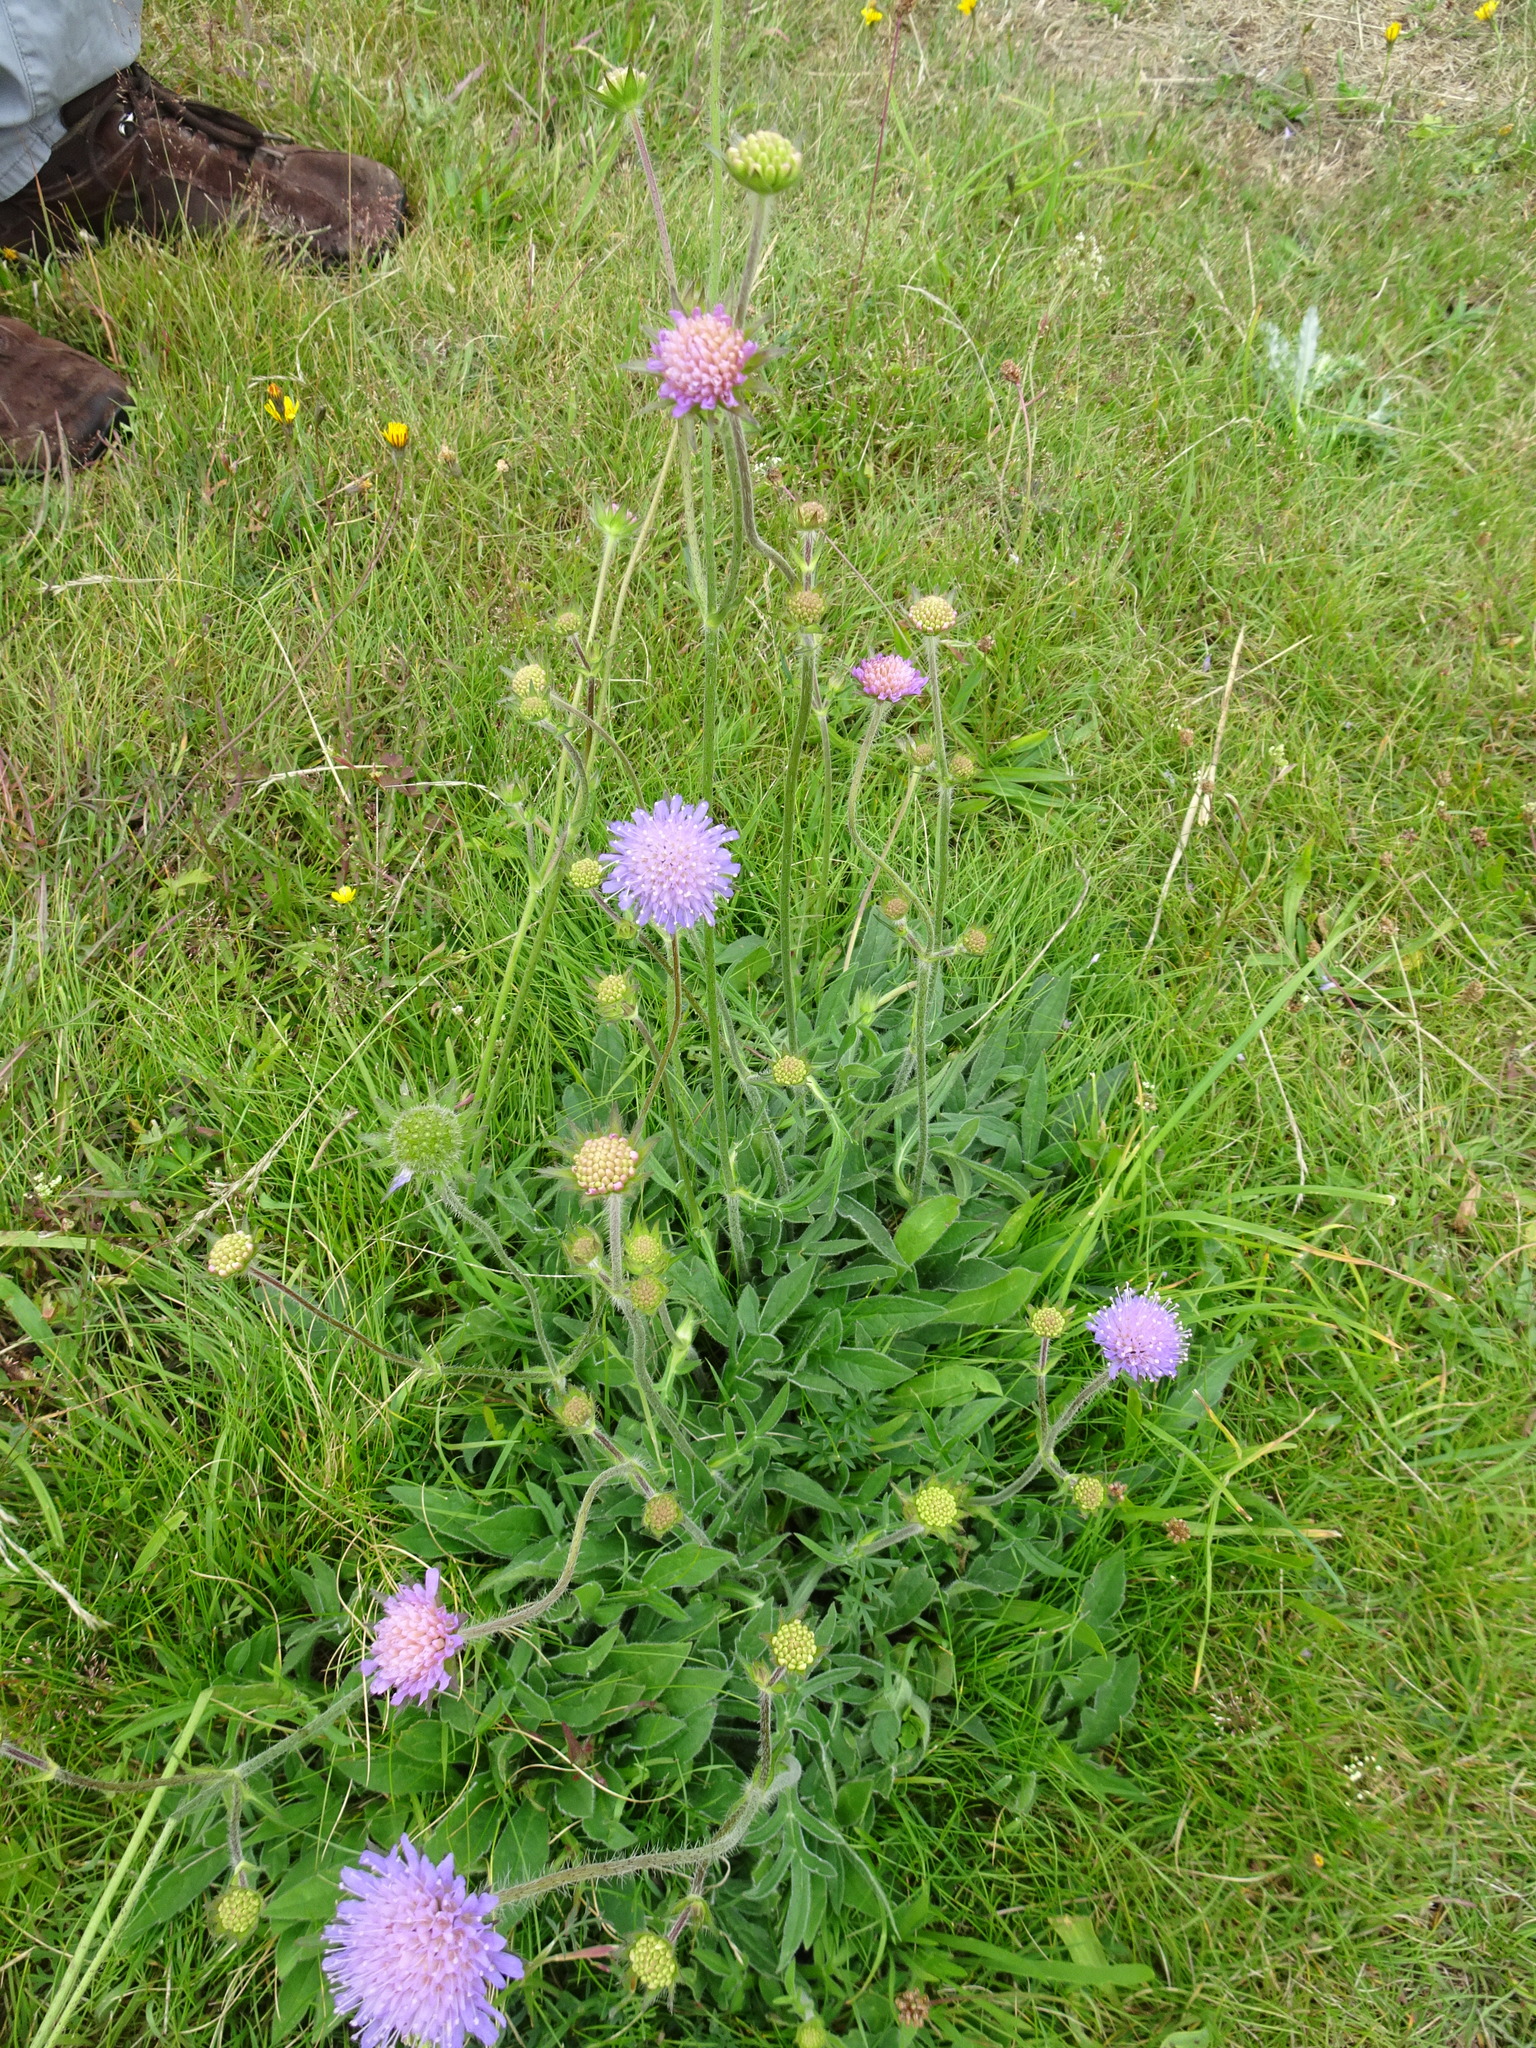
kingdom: Plantae
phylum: Tracheophyta
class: Magnoliopsida
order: Dipsacales
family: Caprifoliaceae
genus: Knautia
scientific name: Knautia arvensis
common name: Field scabiosa
